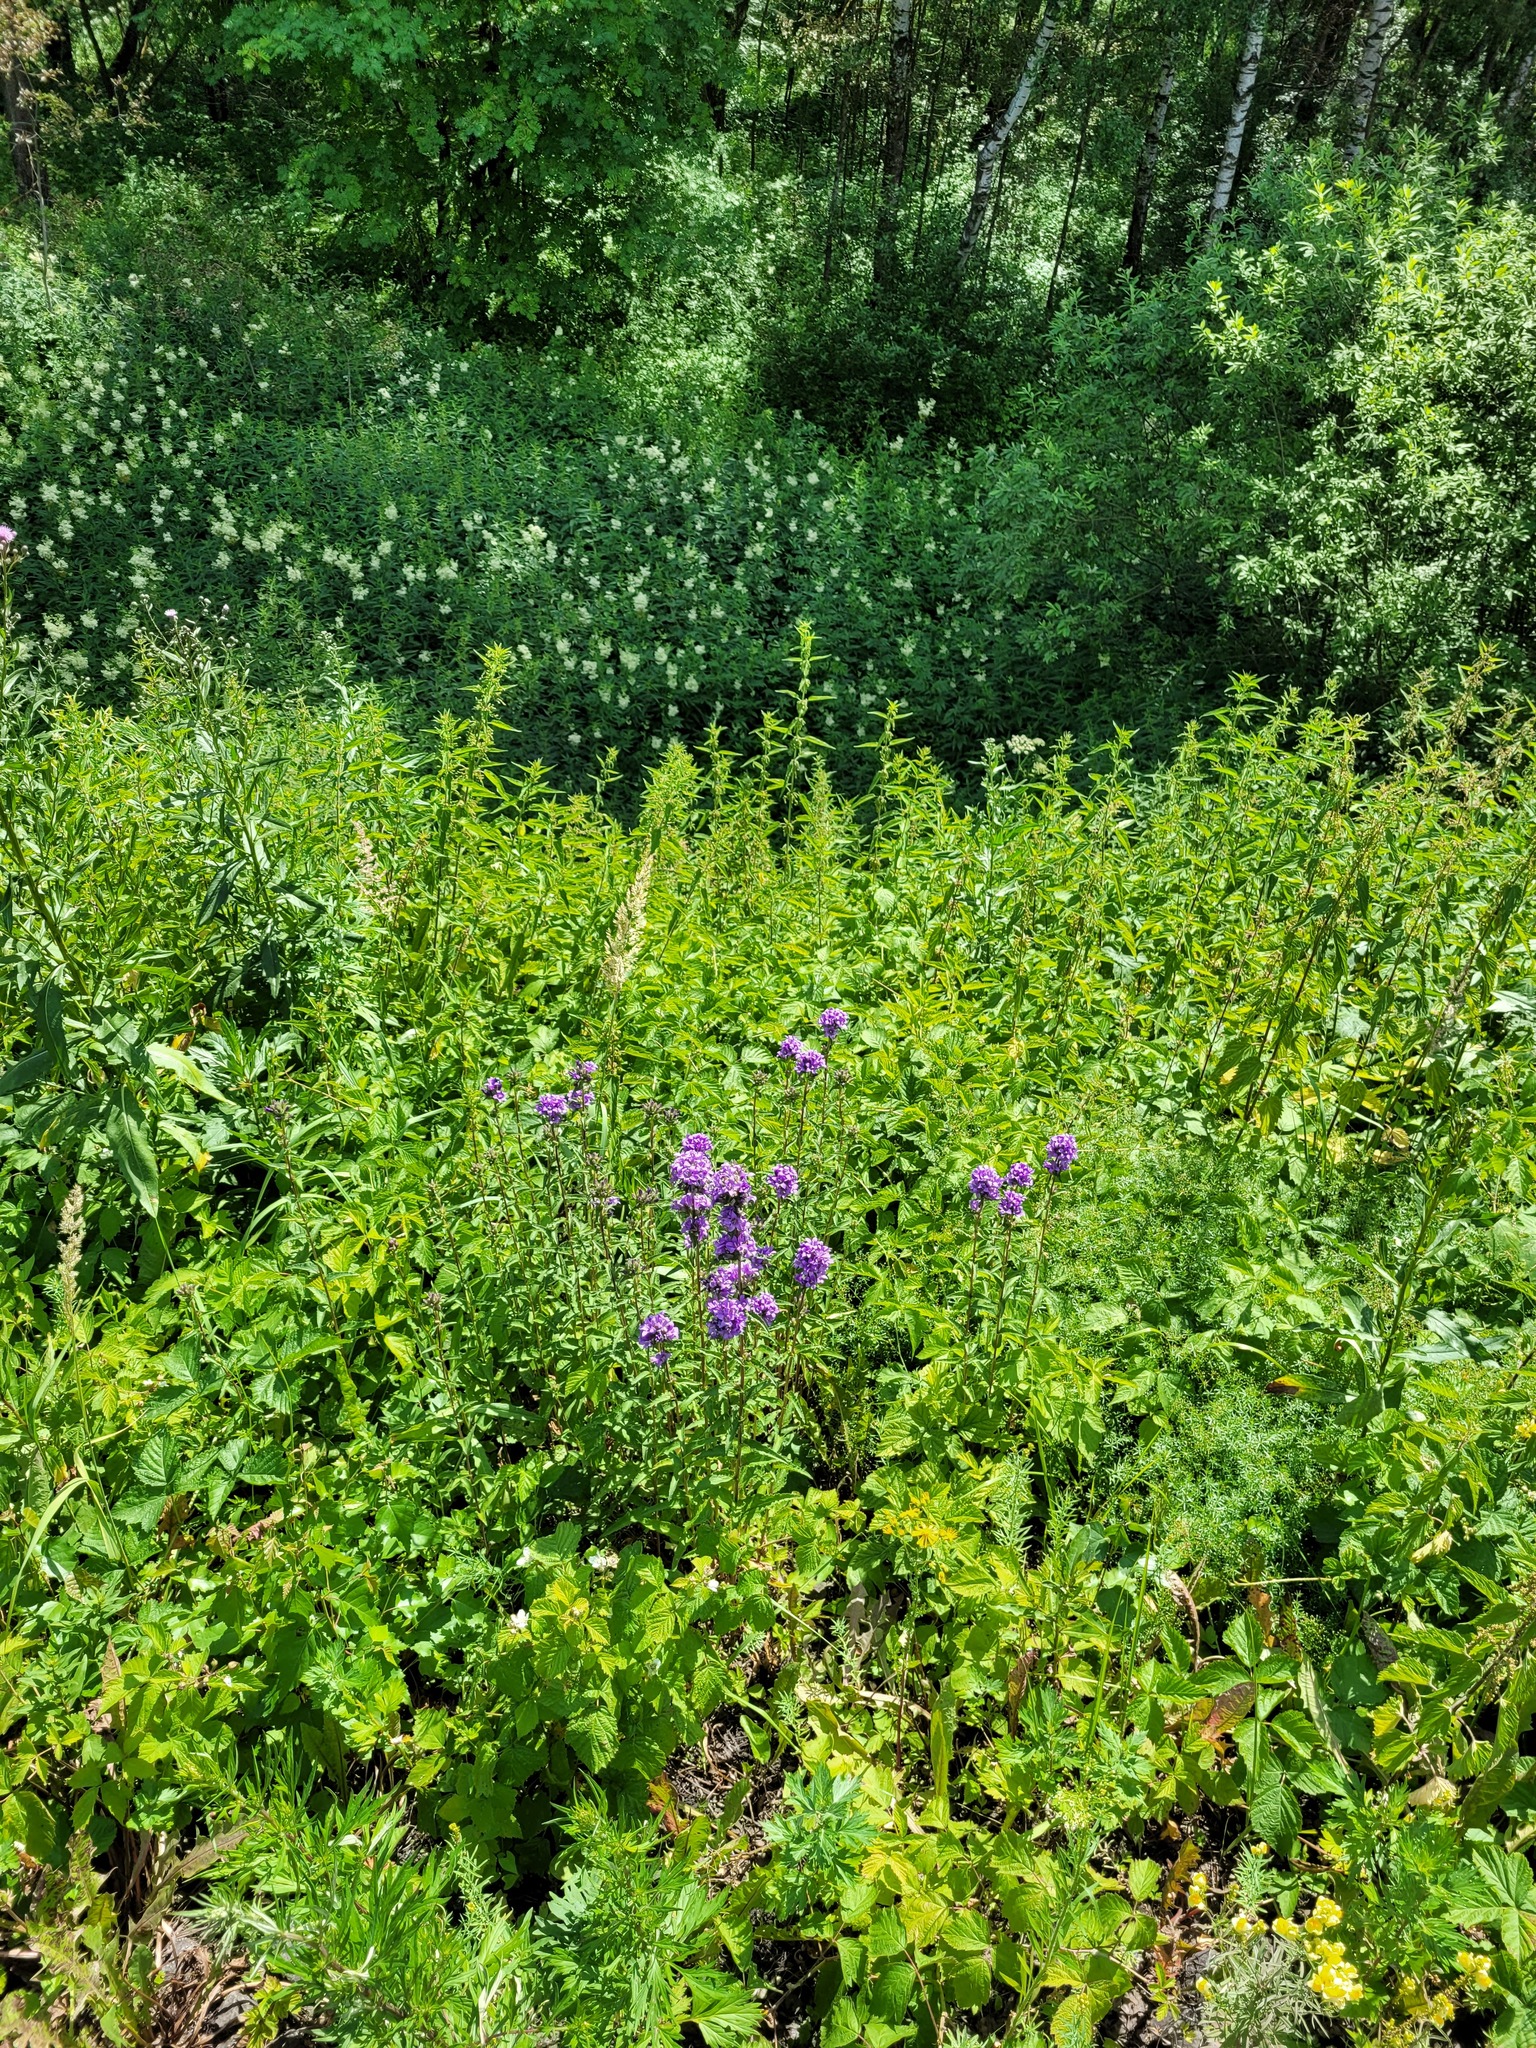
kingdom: Plantae
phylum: Tracheophyta
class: Magnoliopsida
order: Asterales
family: Campanulaceae
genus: Campanula
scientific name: Campanula glomerata
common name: Clustered bellflower
